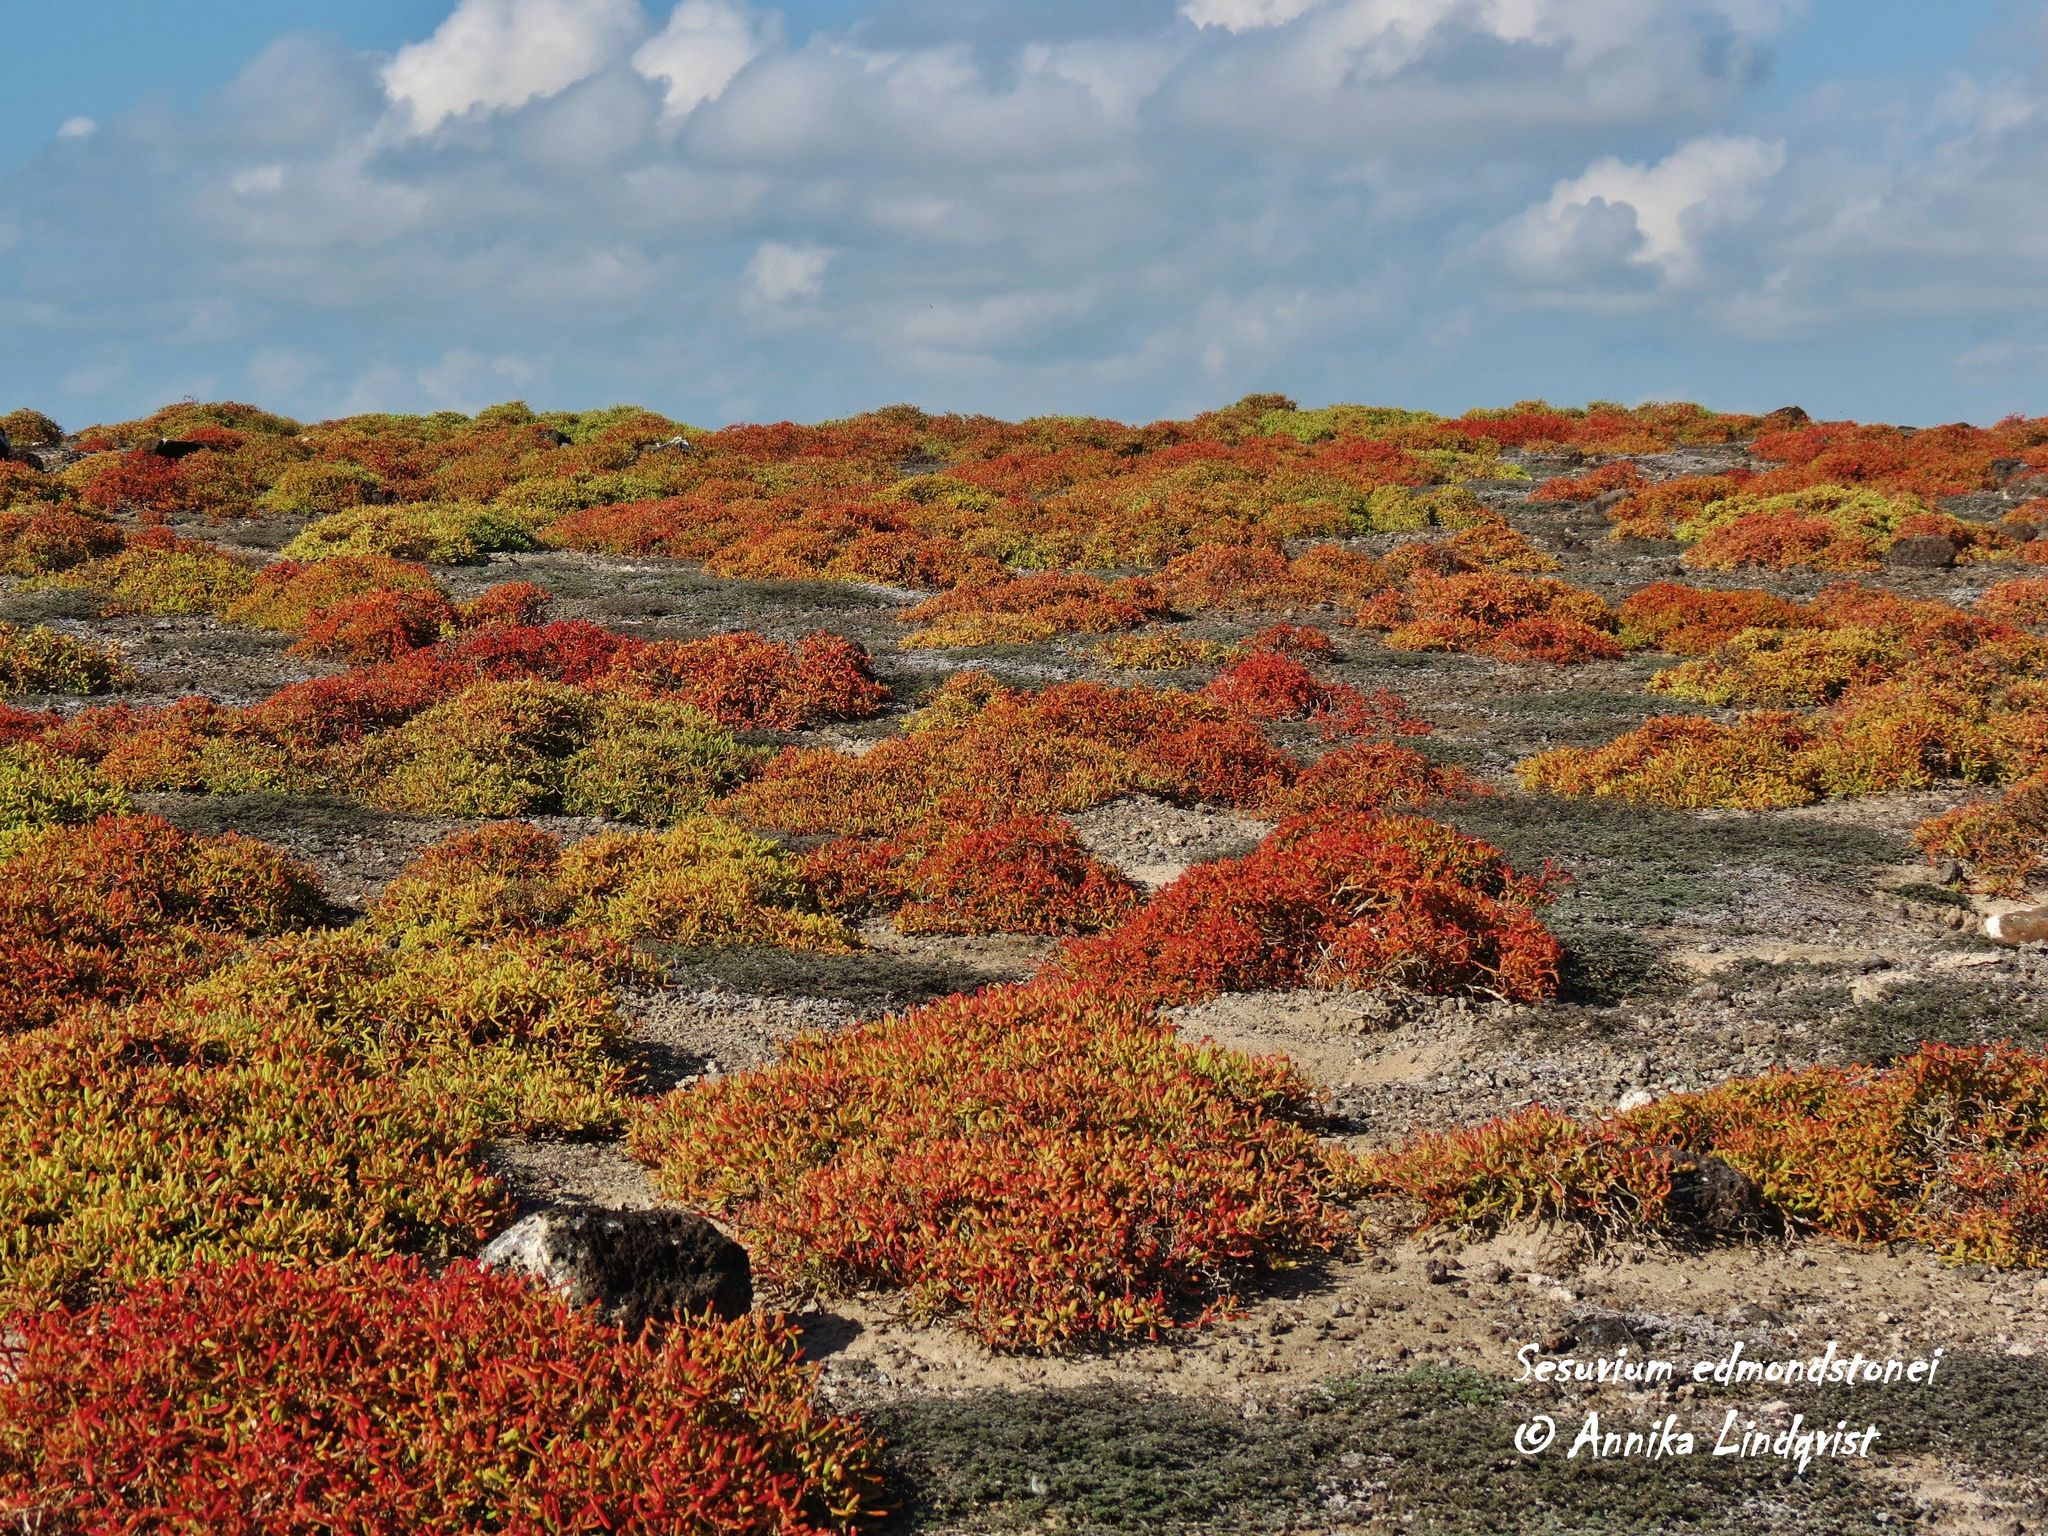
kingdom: Plantae
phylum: Tracheophyta
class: Magnoliopsida
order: Caryophyllales
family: Aizoaceae
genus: Sesuvium
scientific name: Sesuvium edmonstonei
